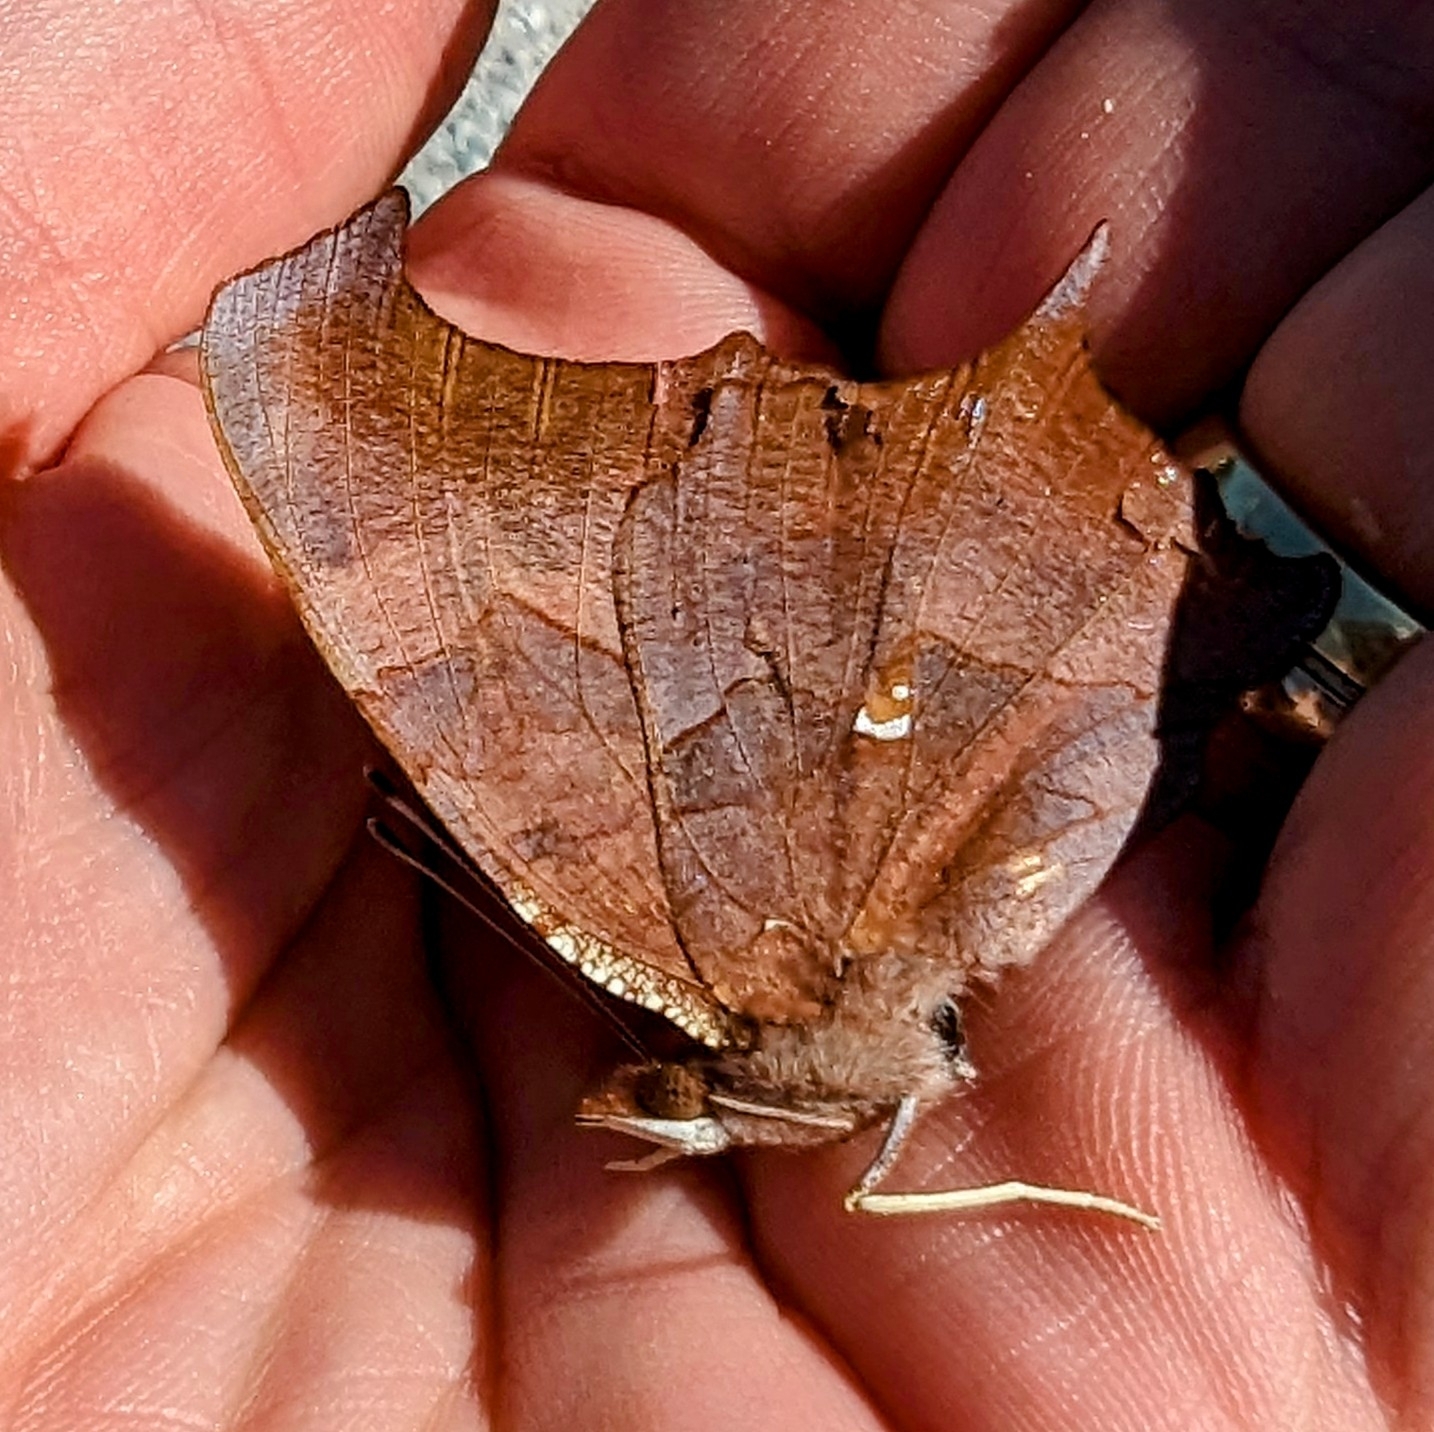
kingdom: Animalia
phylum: Arthropoda
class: Insecta
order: Lepidoptera
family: Nymphalidae
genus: Polygonia
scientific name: Polygonia interrogationis
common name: Question mark
